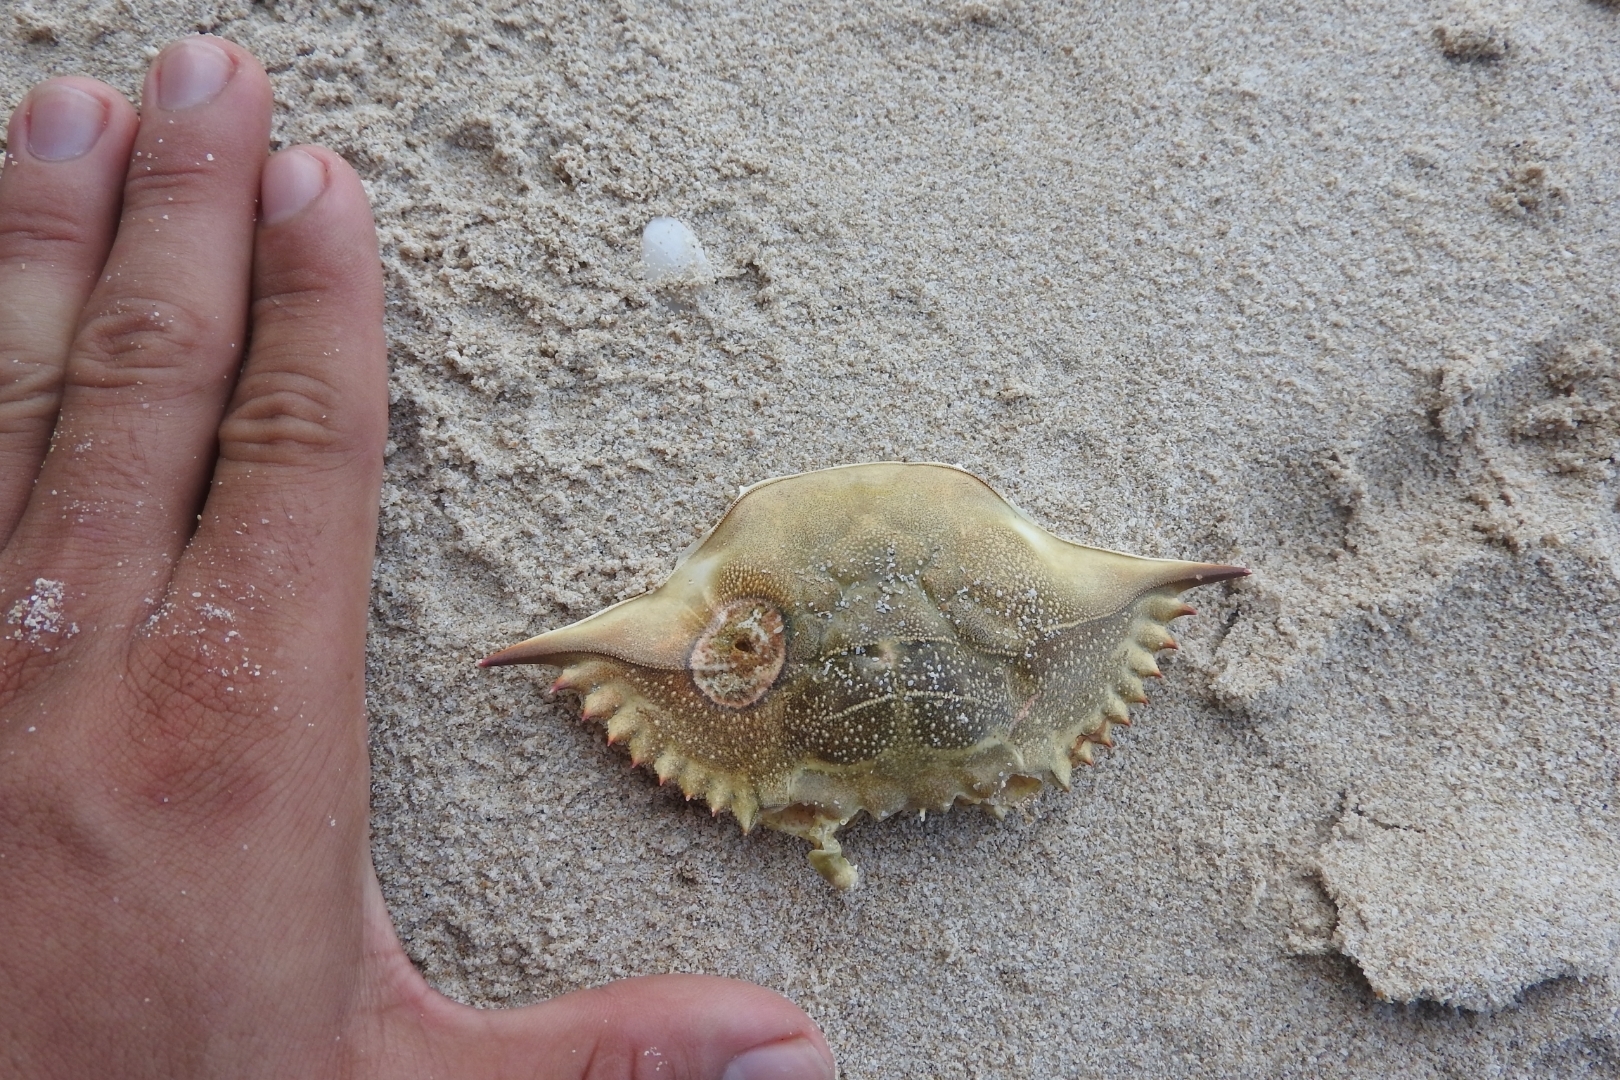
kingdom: Animalia
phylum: Arthropoda
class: Malacostraca
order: Decapoda
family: Portunidae
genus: Callinectes
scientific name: Callinectes sapidus
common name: Blue crab
